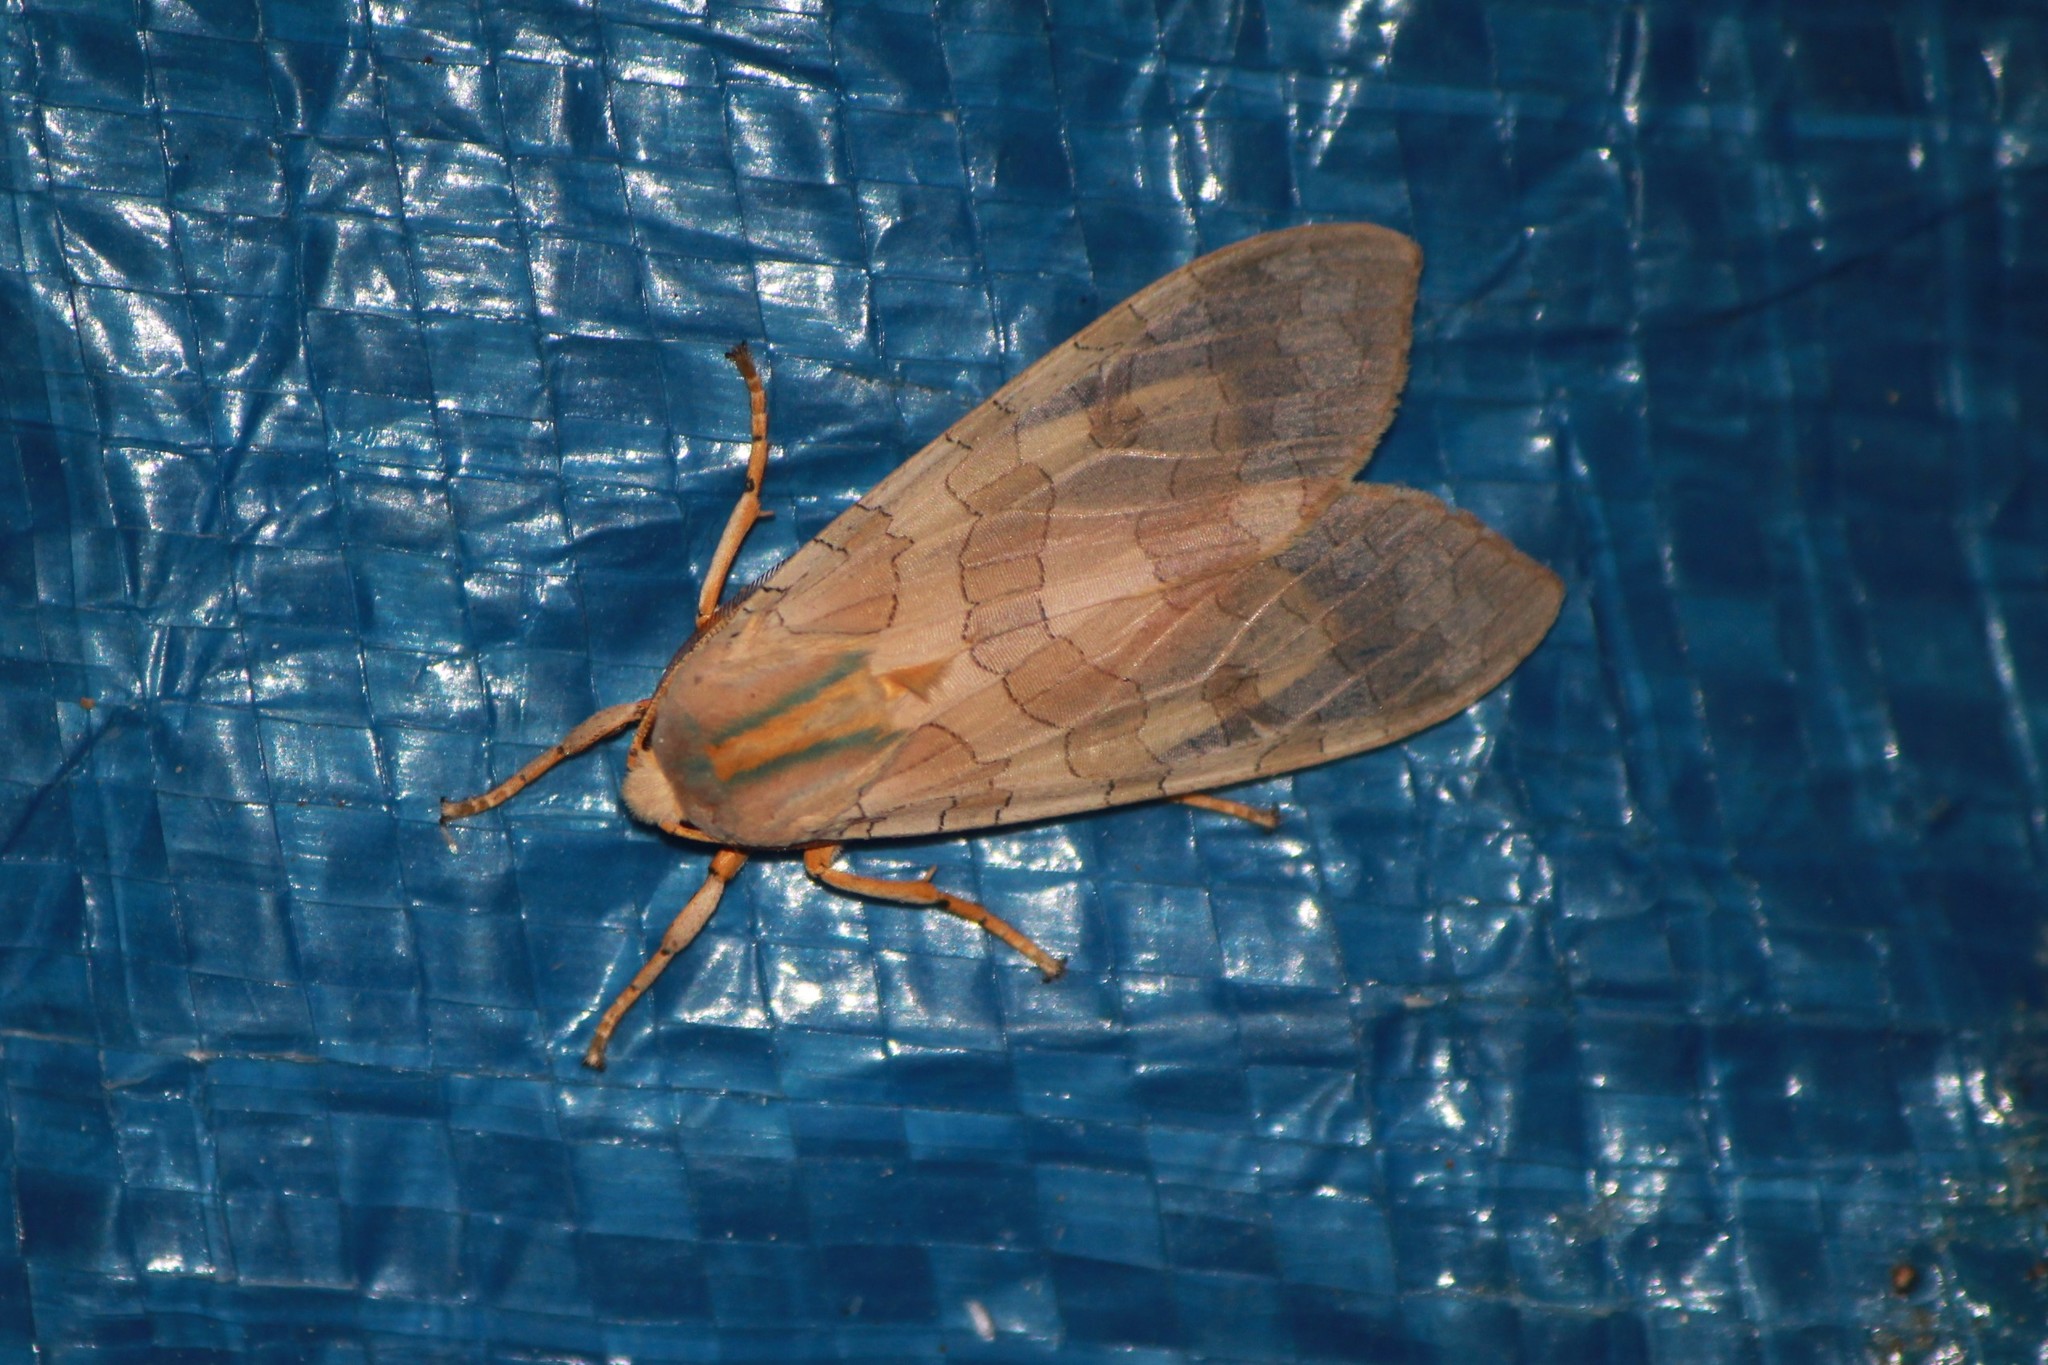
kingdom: Animalia
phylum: Arthropoda
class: Insecta
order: Lepidoptera
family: Erebidae
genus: Halysidota
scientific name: Halysidota tessellaris
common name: Banded tussock moth
